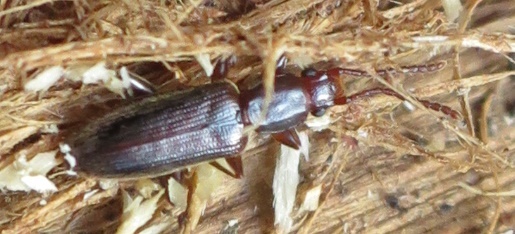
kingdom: Animalia
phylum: Arthropoda
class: Insecta
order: Coleoptera
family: Silvanidae
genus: Cryptamorpha
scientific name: Cryptamorpha brevicornis
